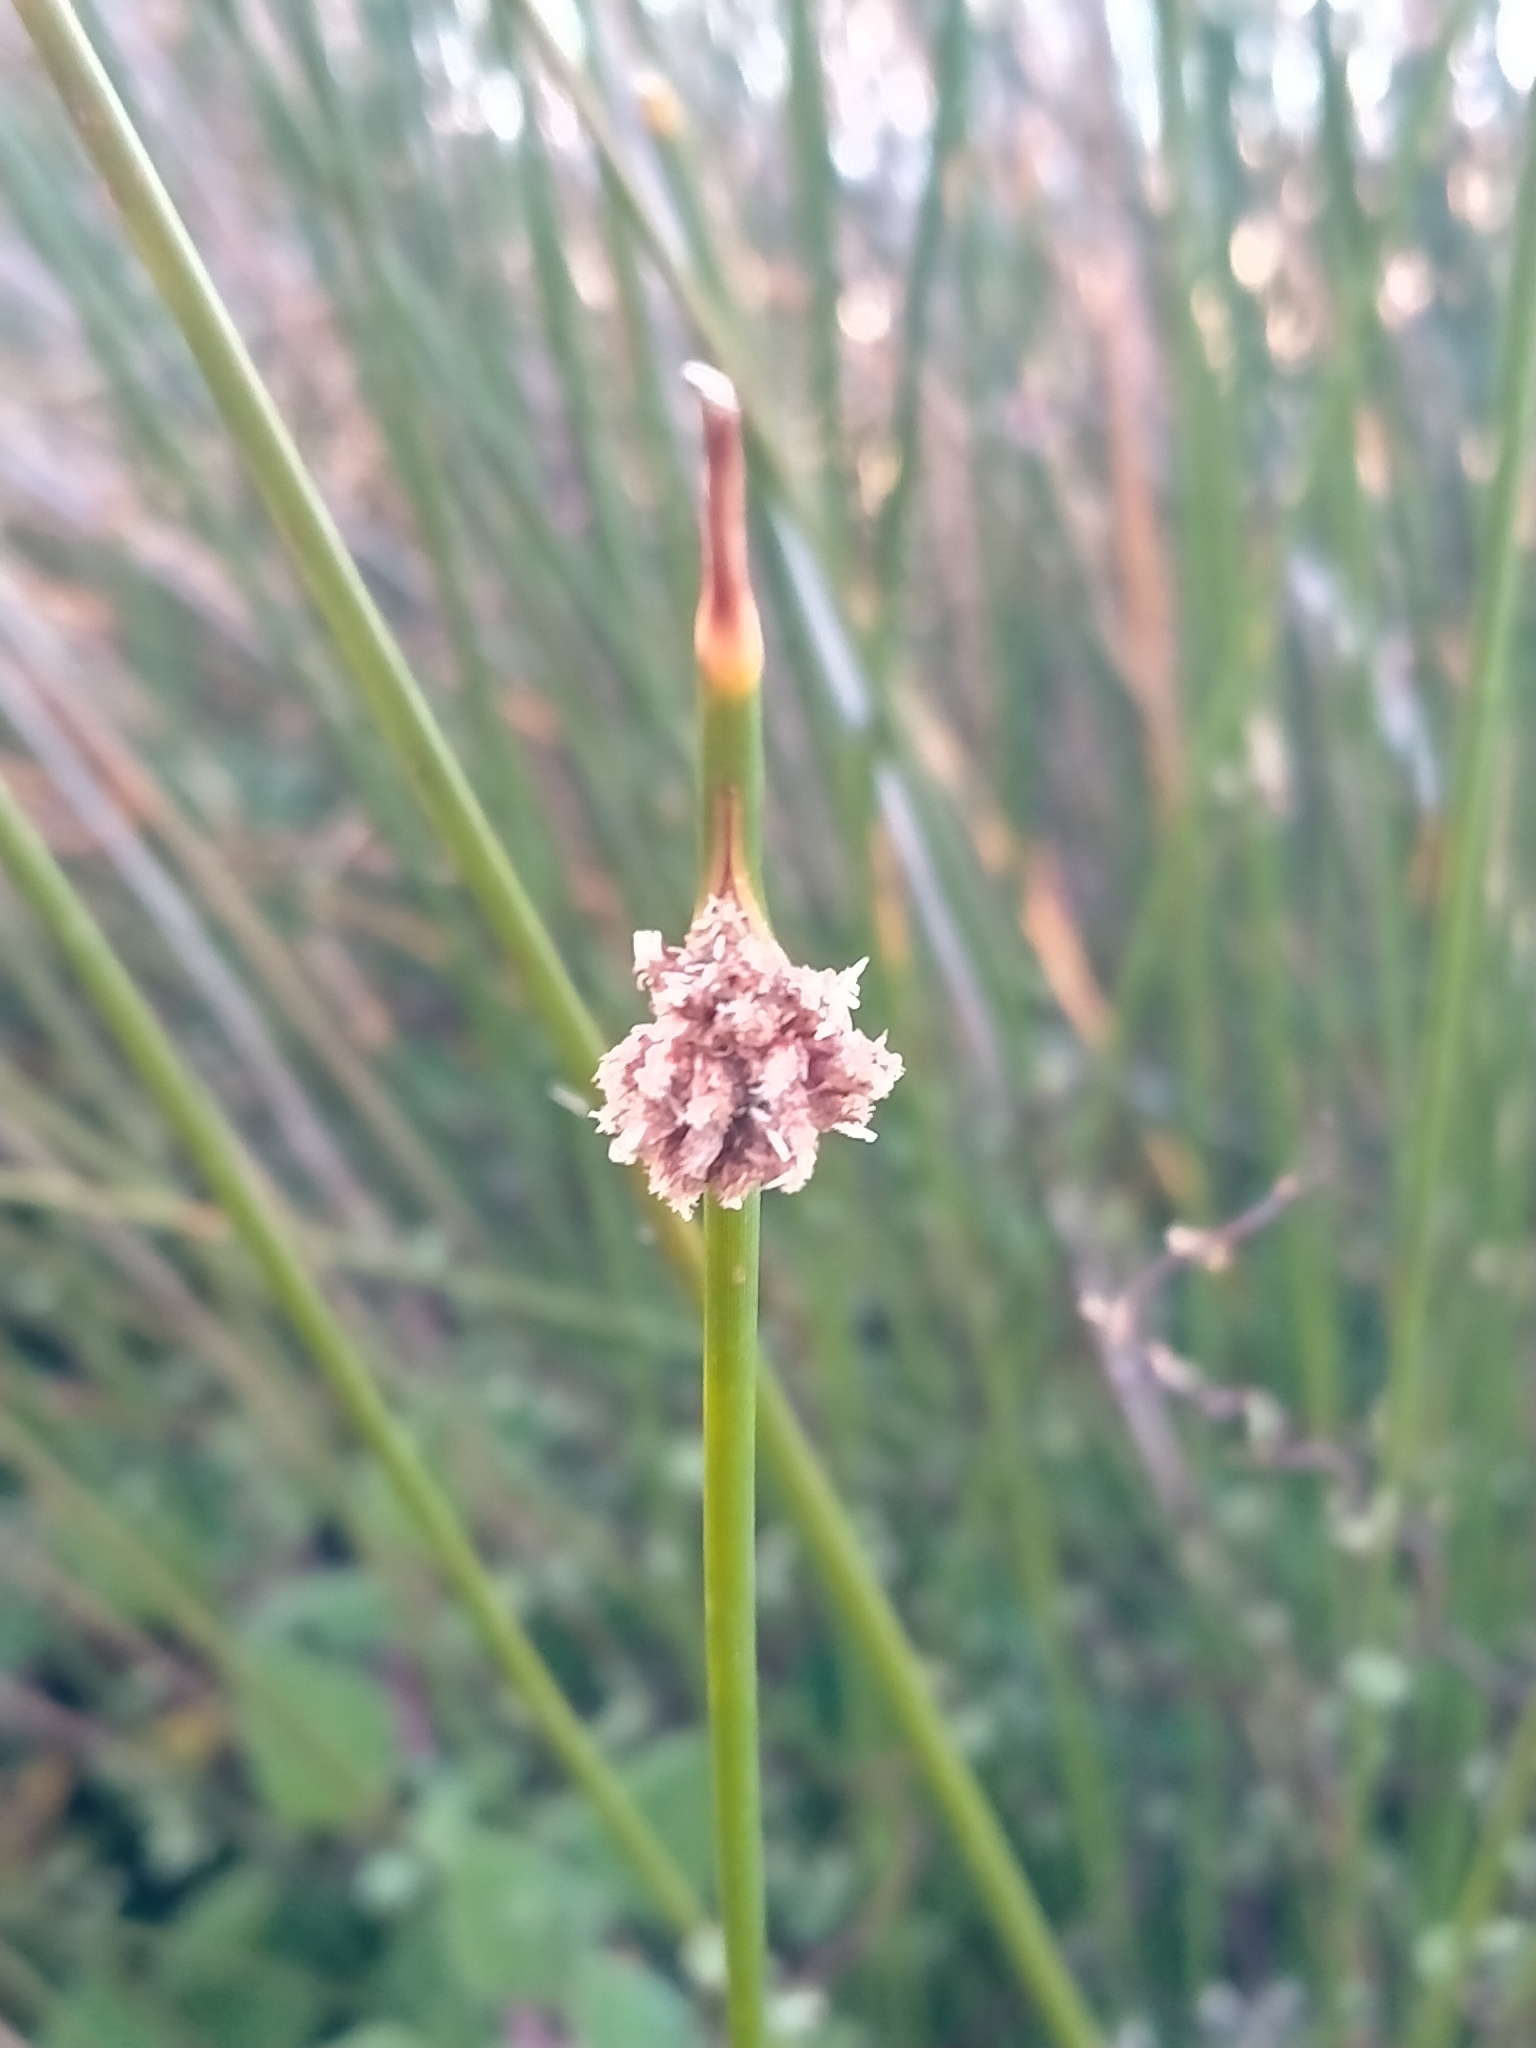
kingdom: Plantae
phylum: Tracheophyta
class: Liliopsida
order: Poales
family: Cyperaceae
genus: Ficinia
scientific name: Ficinia nodosa
